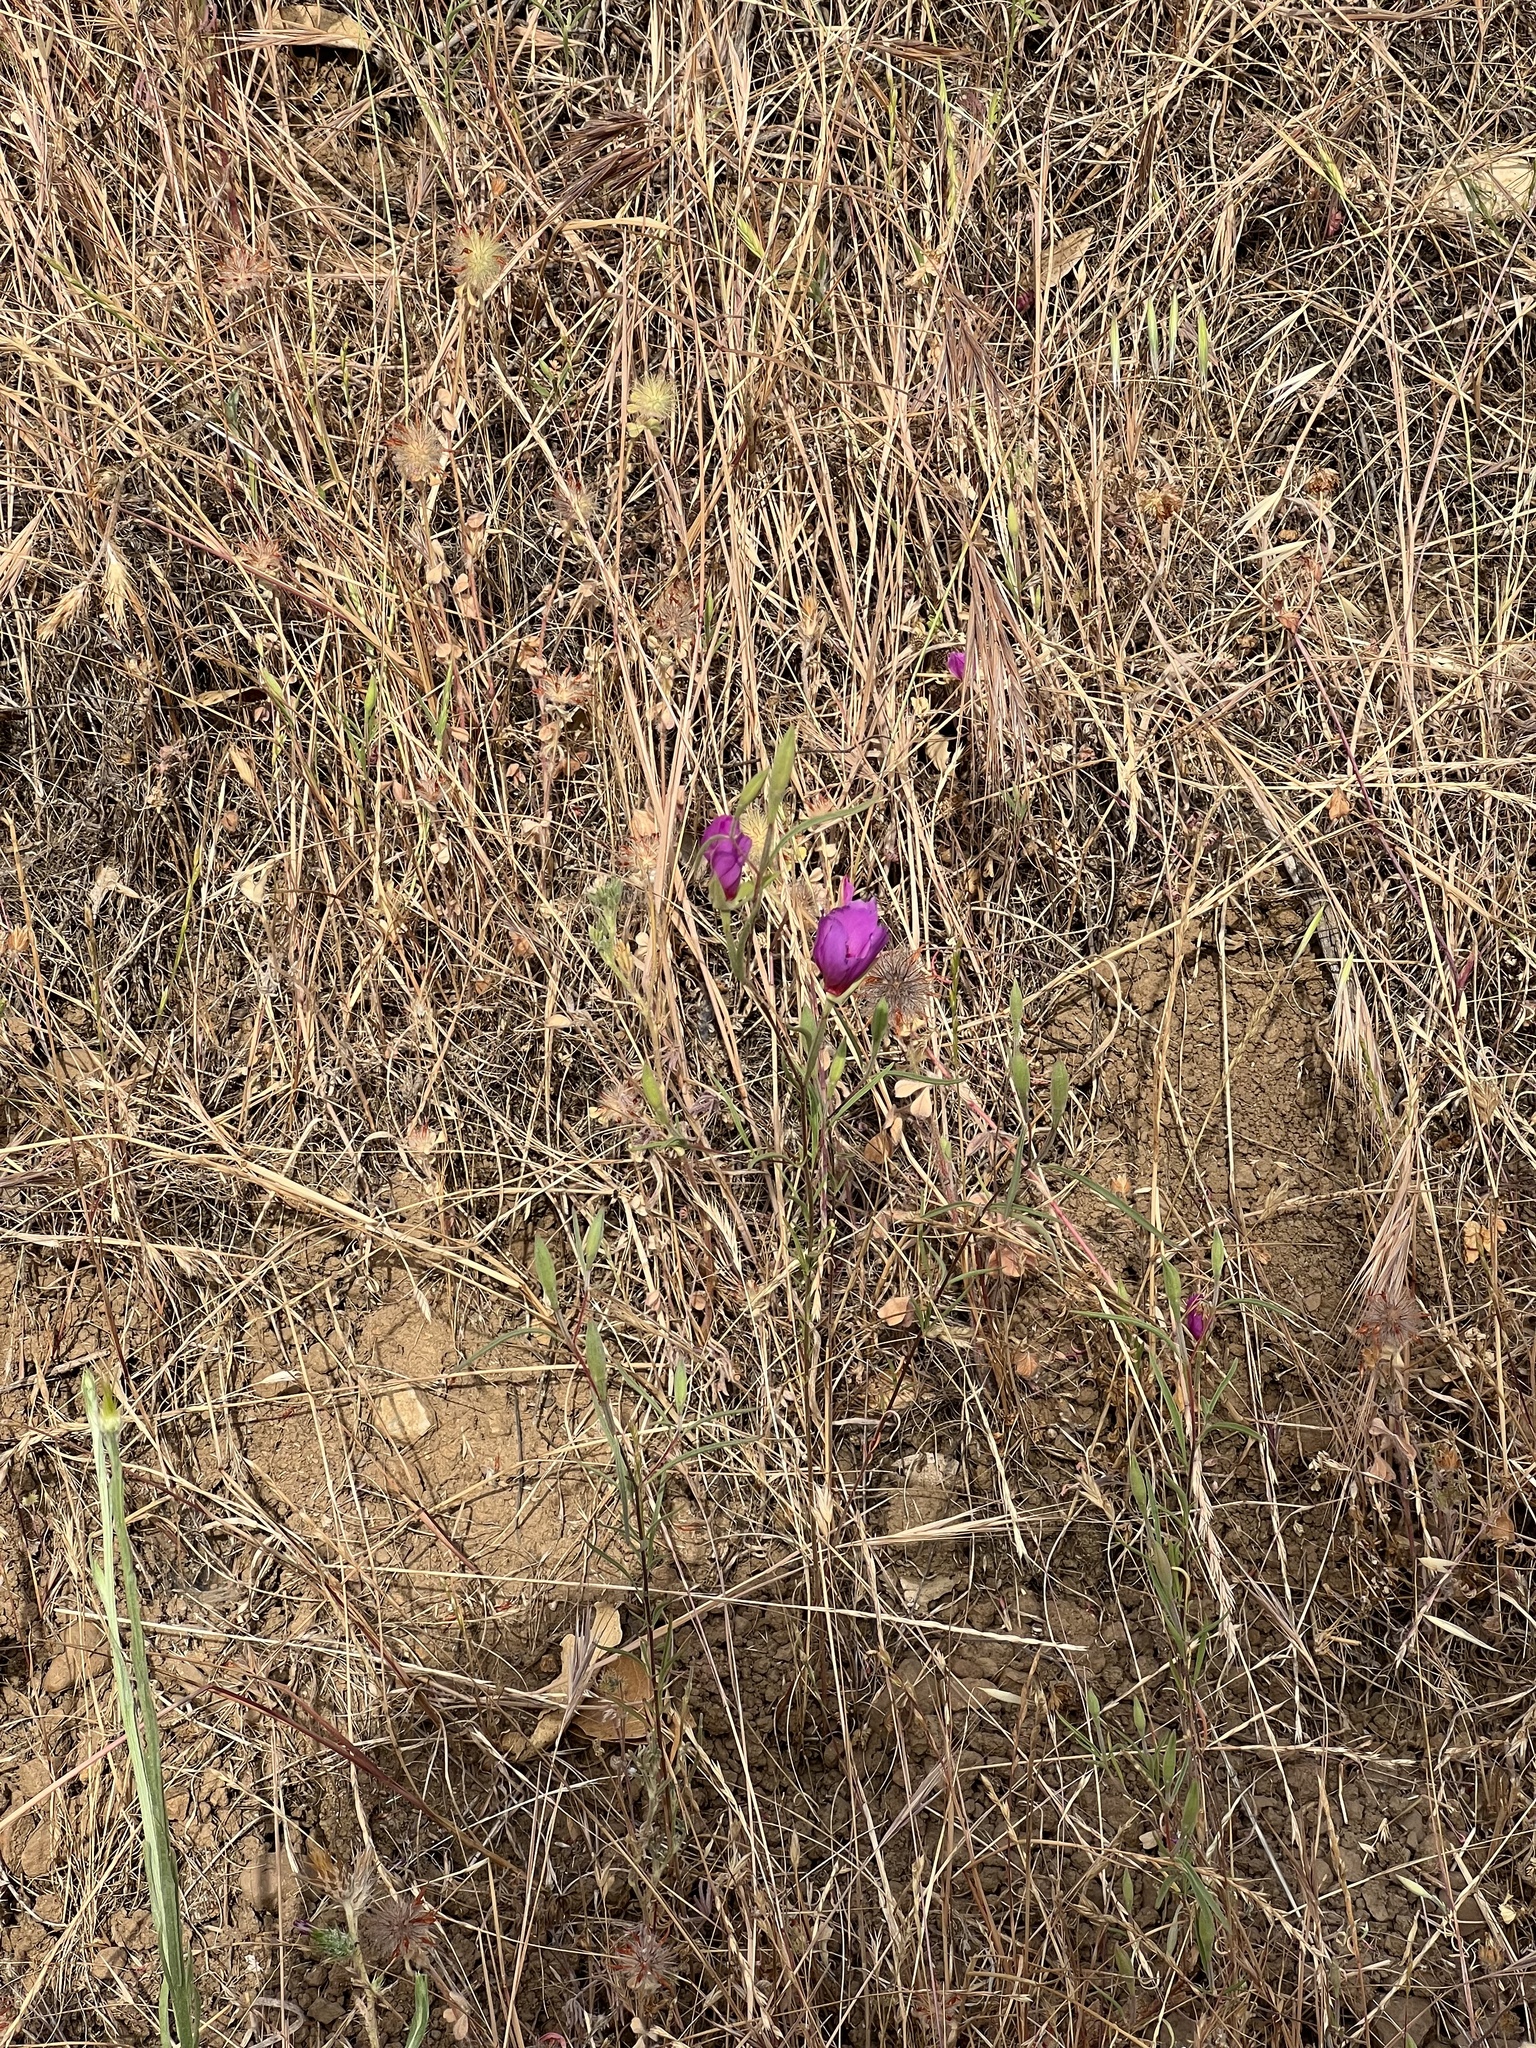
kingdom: Plantae
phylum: Tracheophyta
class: Magnoliopsida
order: Myrtales
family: Onagraceae
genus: Clarkia
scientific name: Clarkia rubicunda
